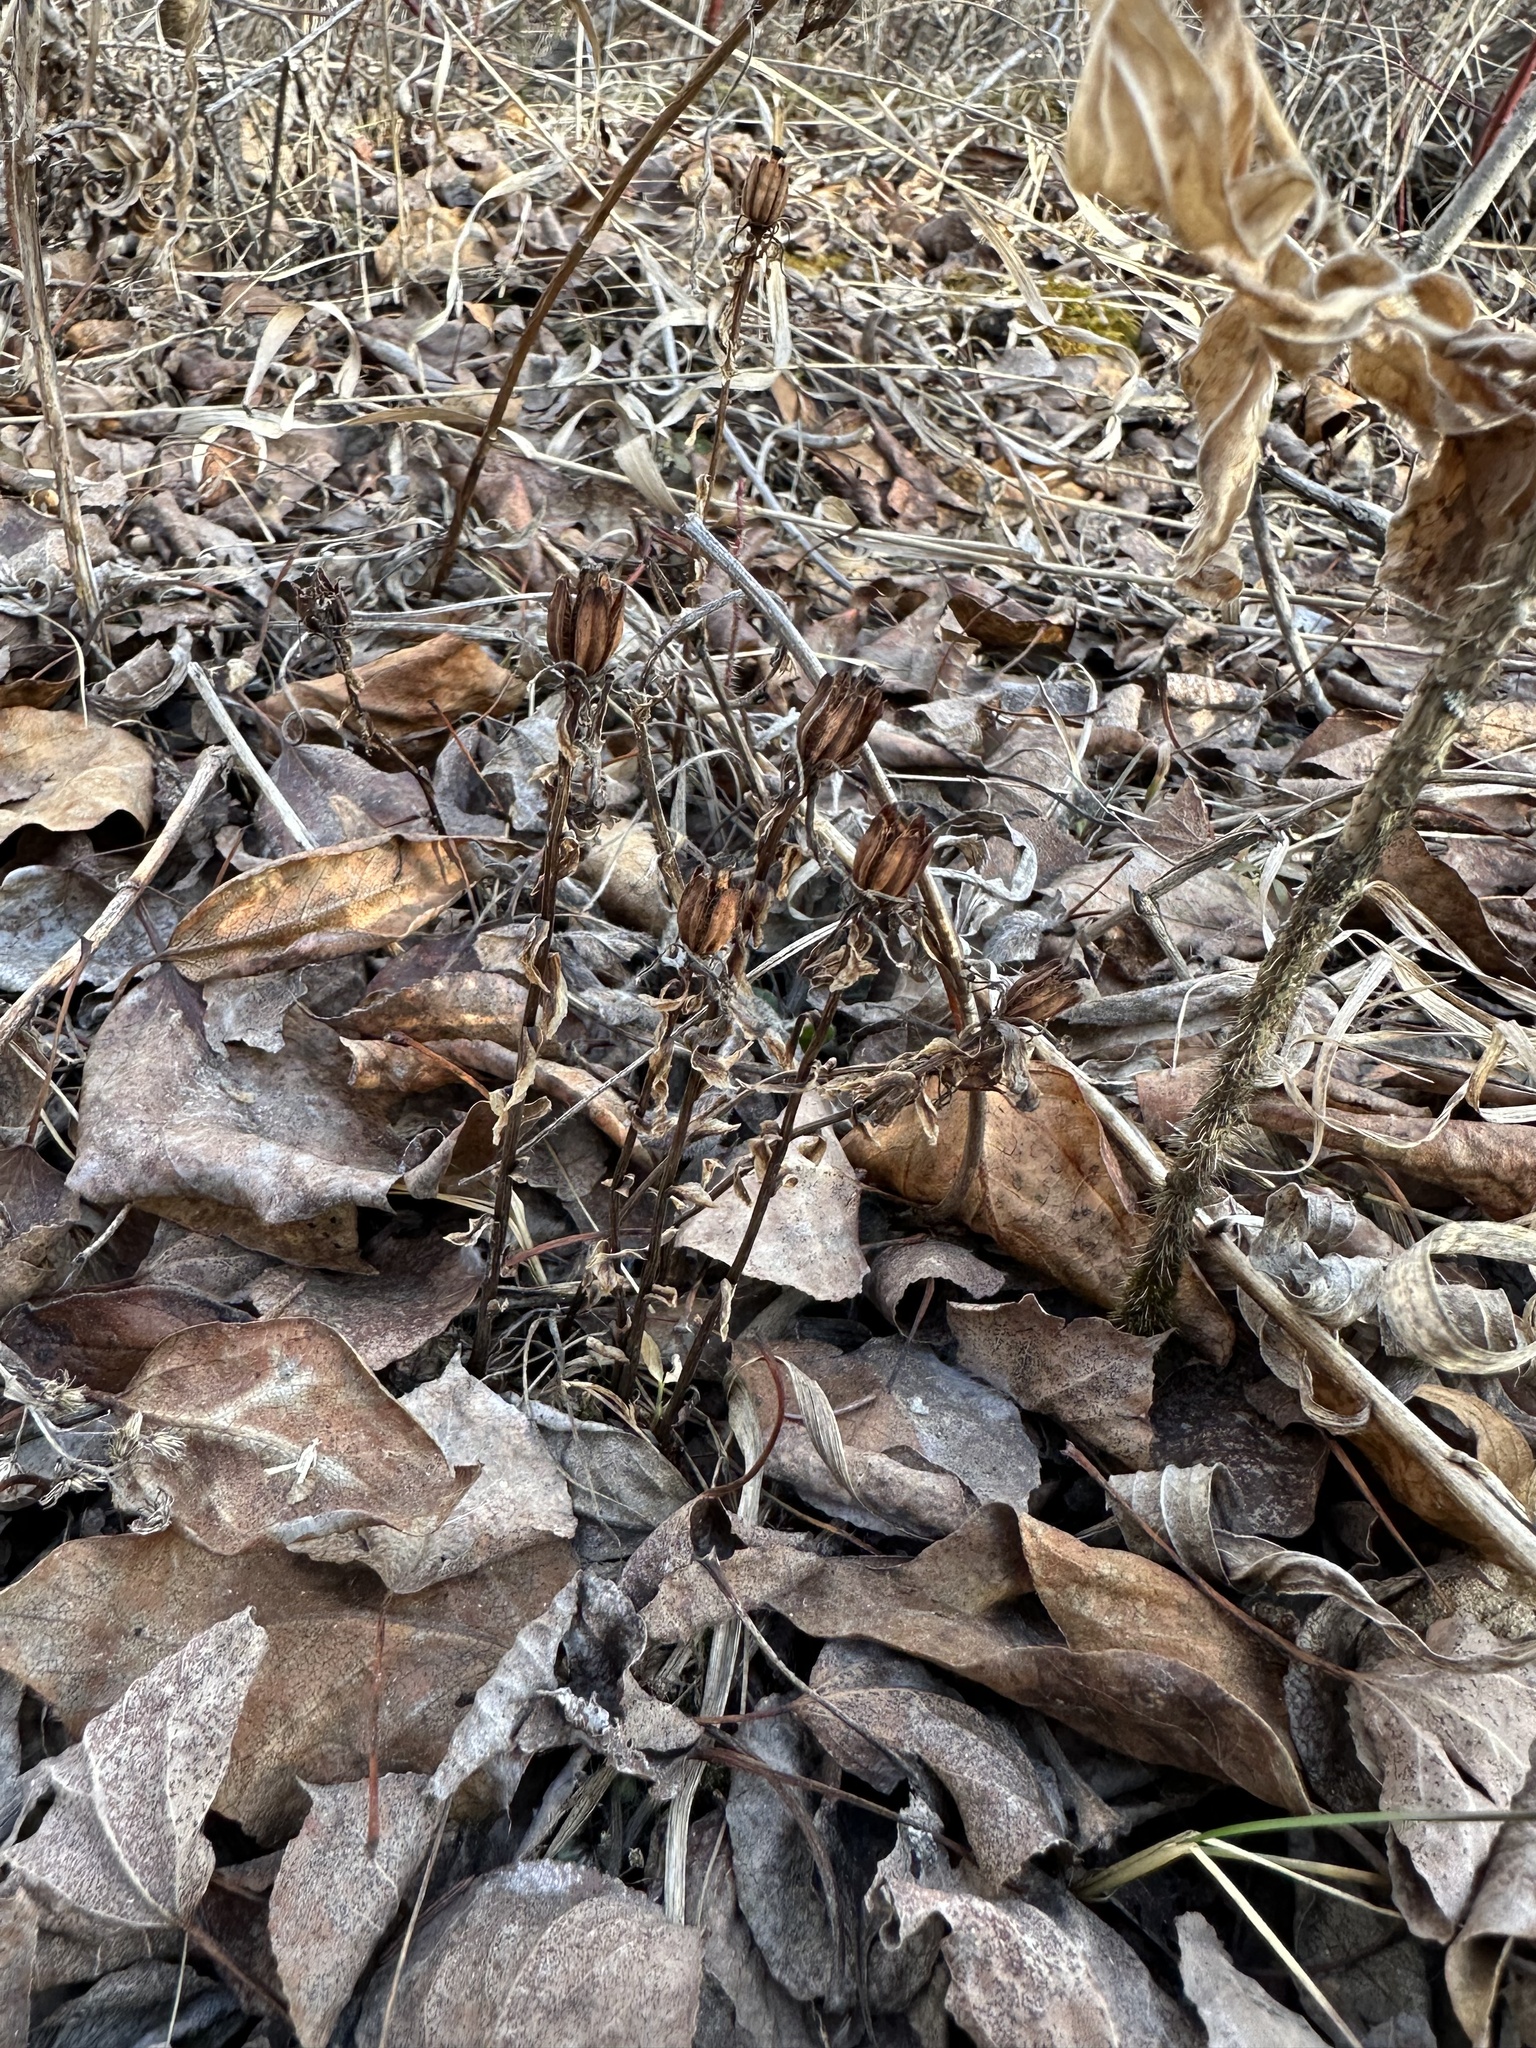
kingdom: Plantae
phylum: Tracheophyta
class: Magnoliopsida
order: Ericales
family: Ericaceae
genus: Monotropa
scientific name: Monotropa uniflora
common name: Convulsion root
